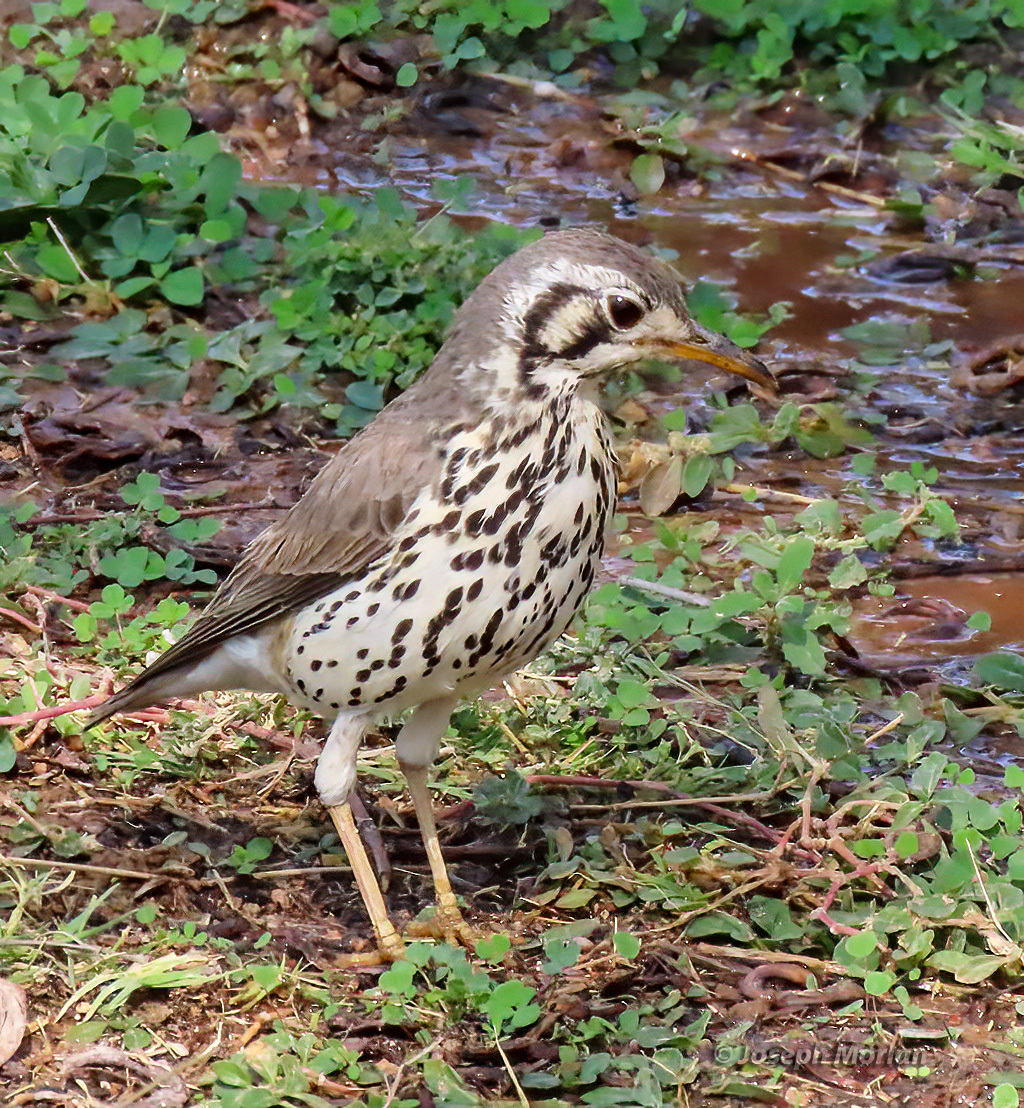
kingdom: Animalia
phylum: Chordata
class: Aves
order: Passeriformes
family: Turdidae
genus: Psophocichla
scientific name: Psophocichla litsitsirupa
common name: Groundscraper thrush
